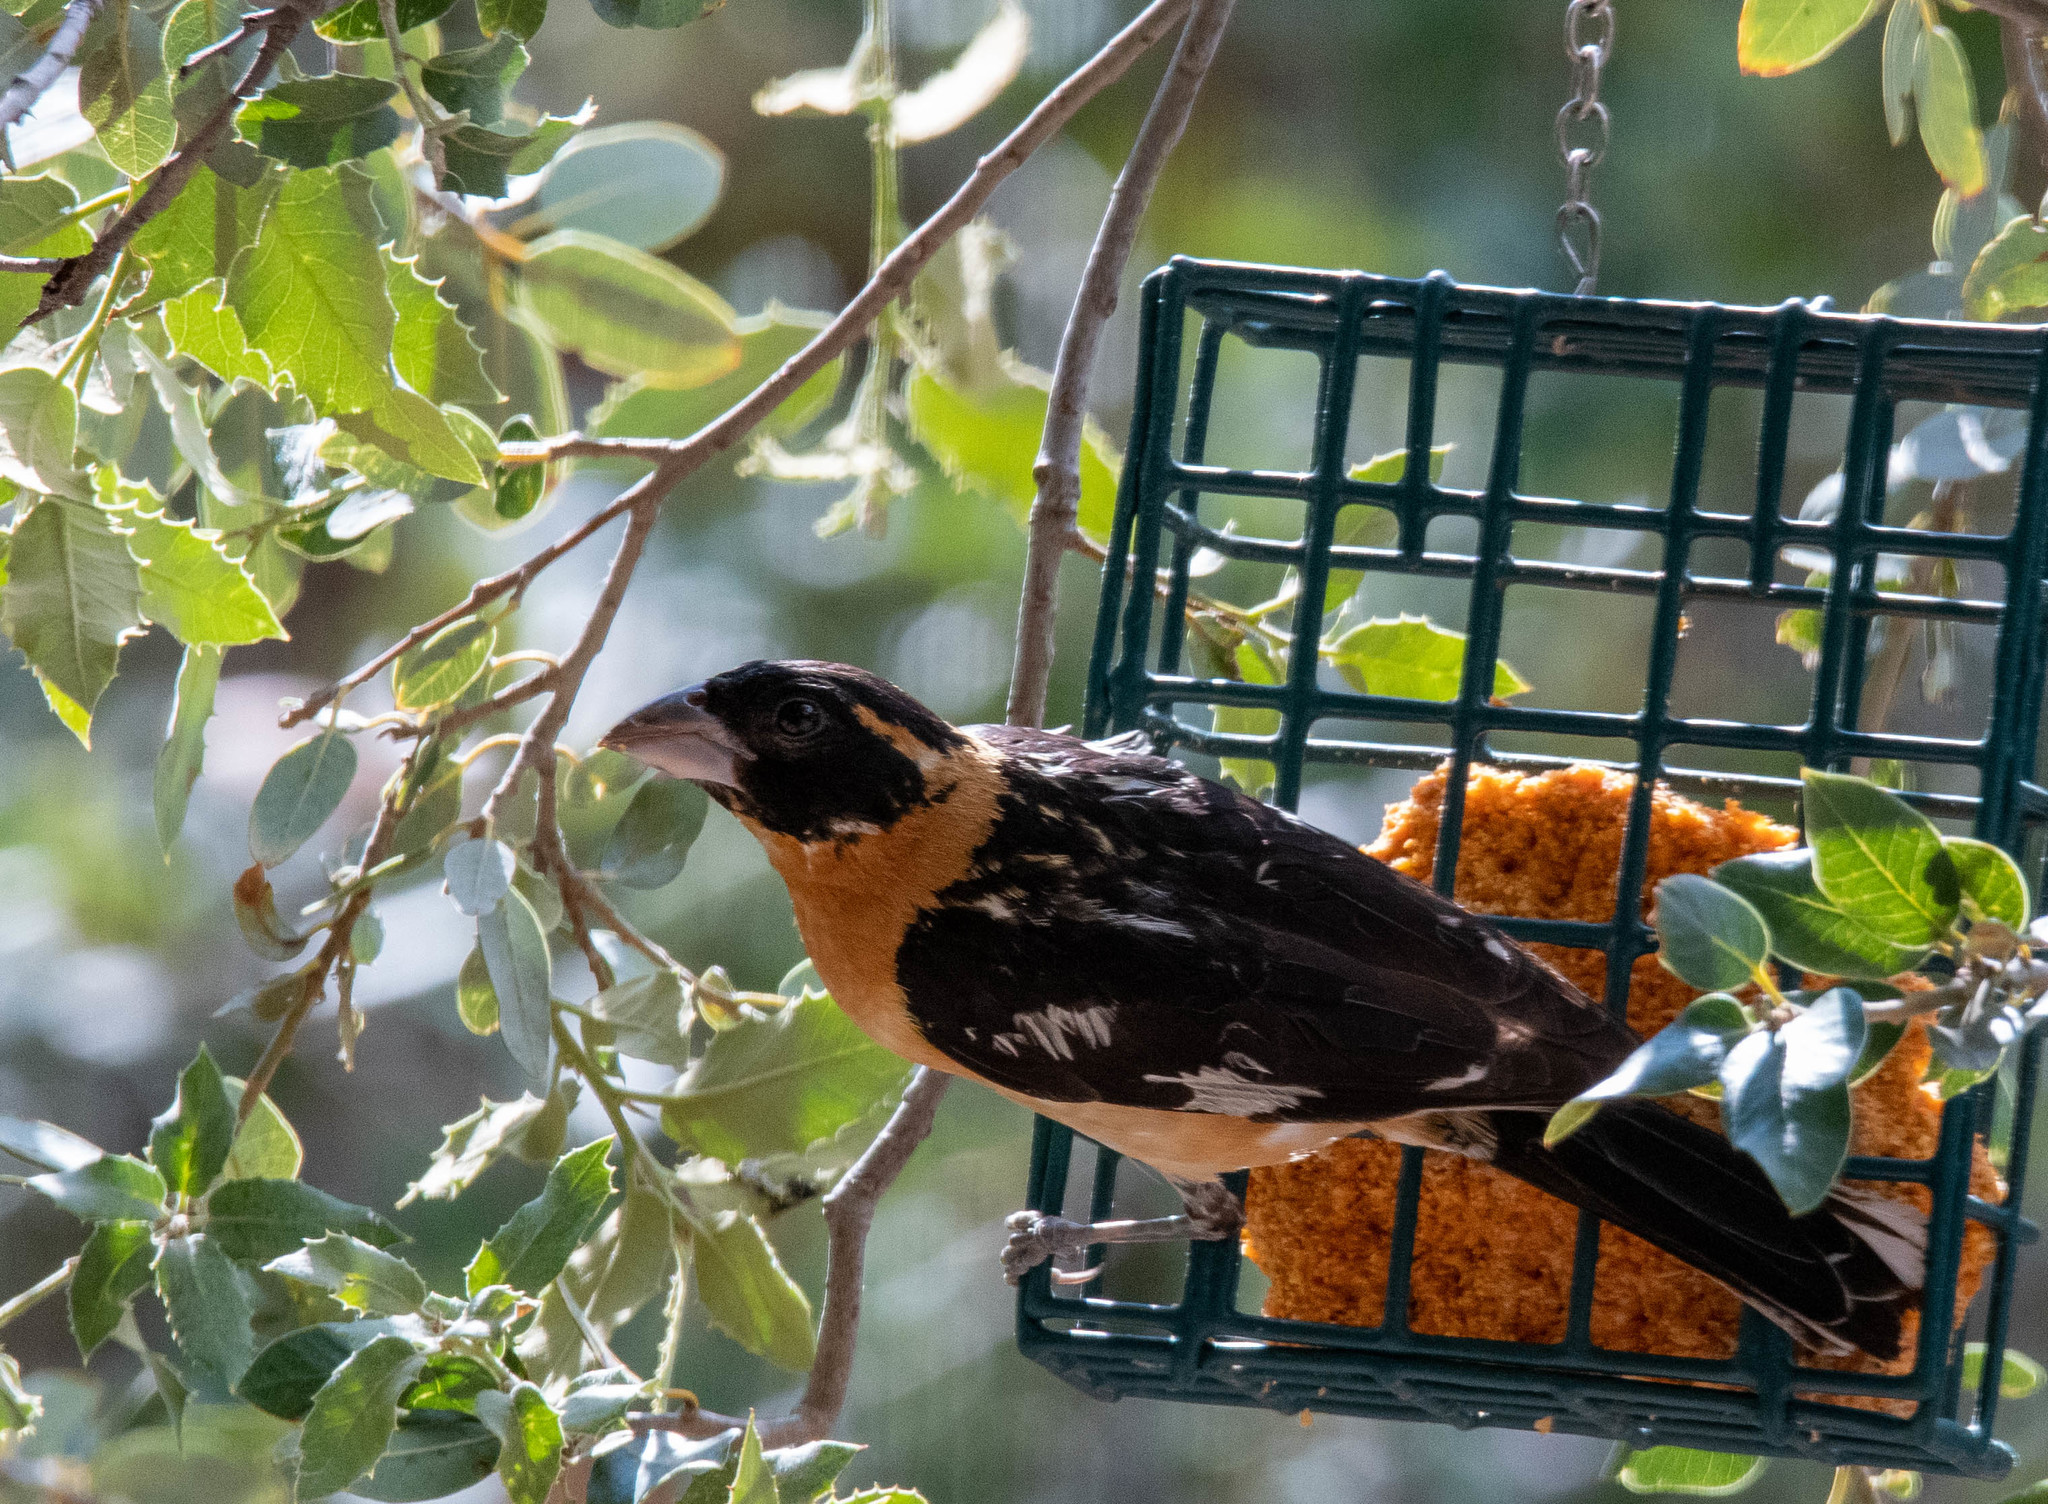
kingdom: Animalia
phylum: Chordata
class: Aves
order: Passeriformes
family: Cardinalidae
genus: Pheucticus
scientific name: Pheucticus melanocephalus
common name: Black-headed grosbeak
